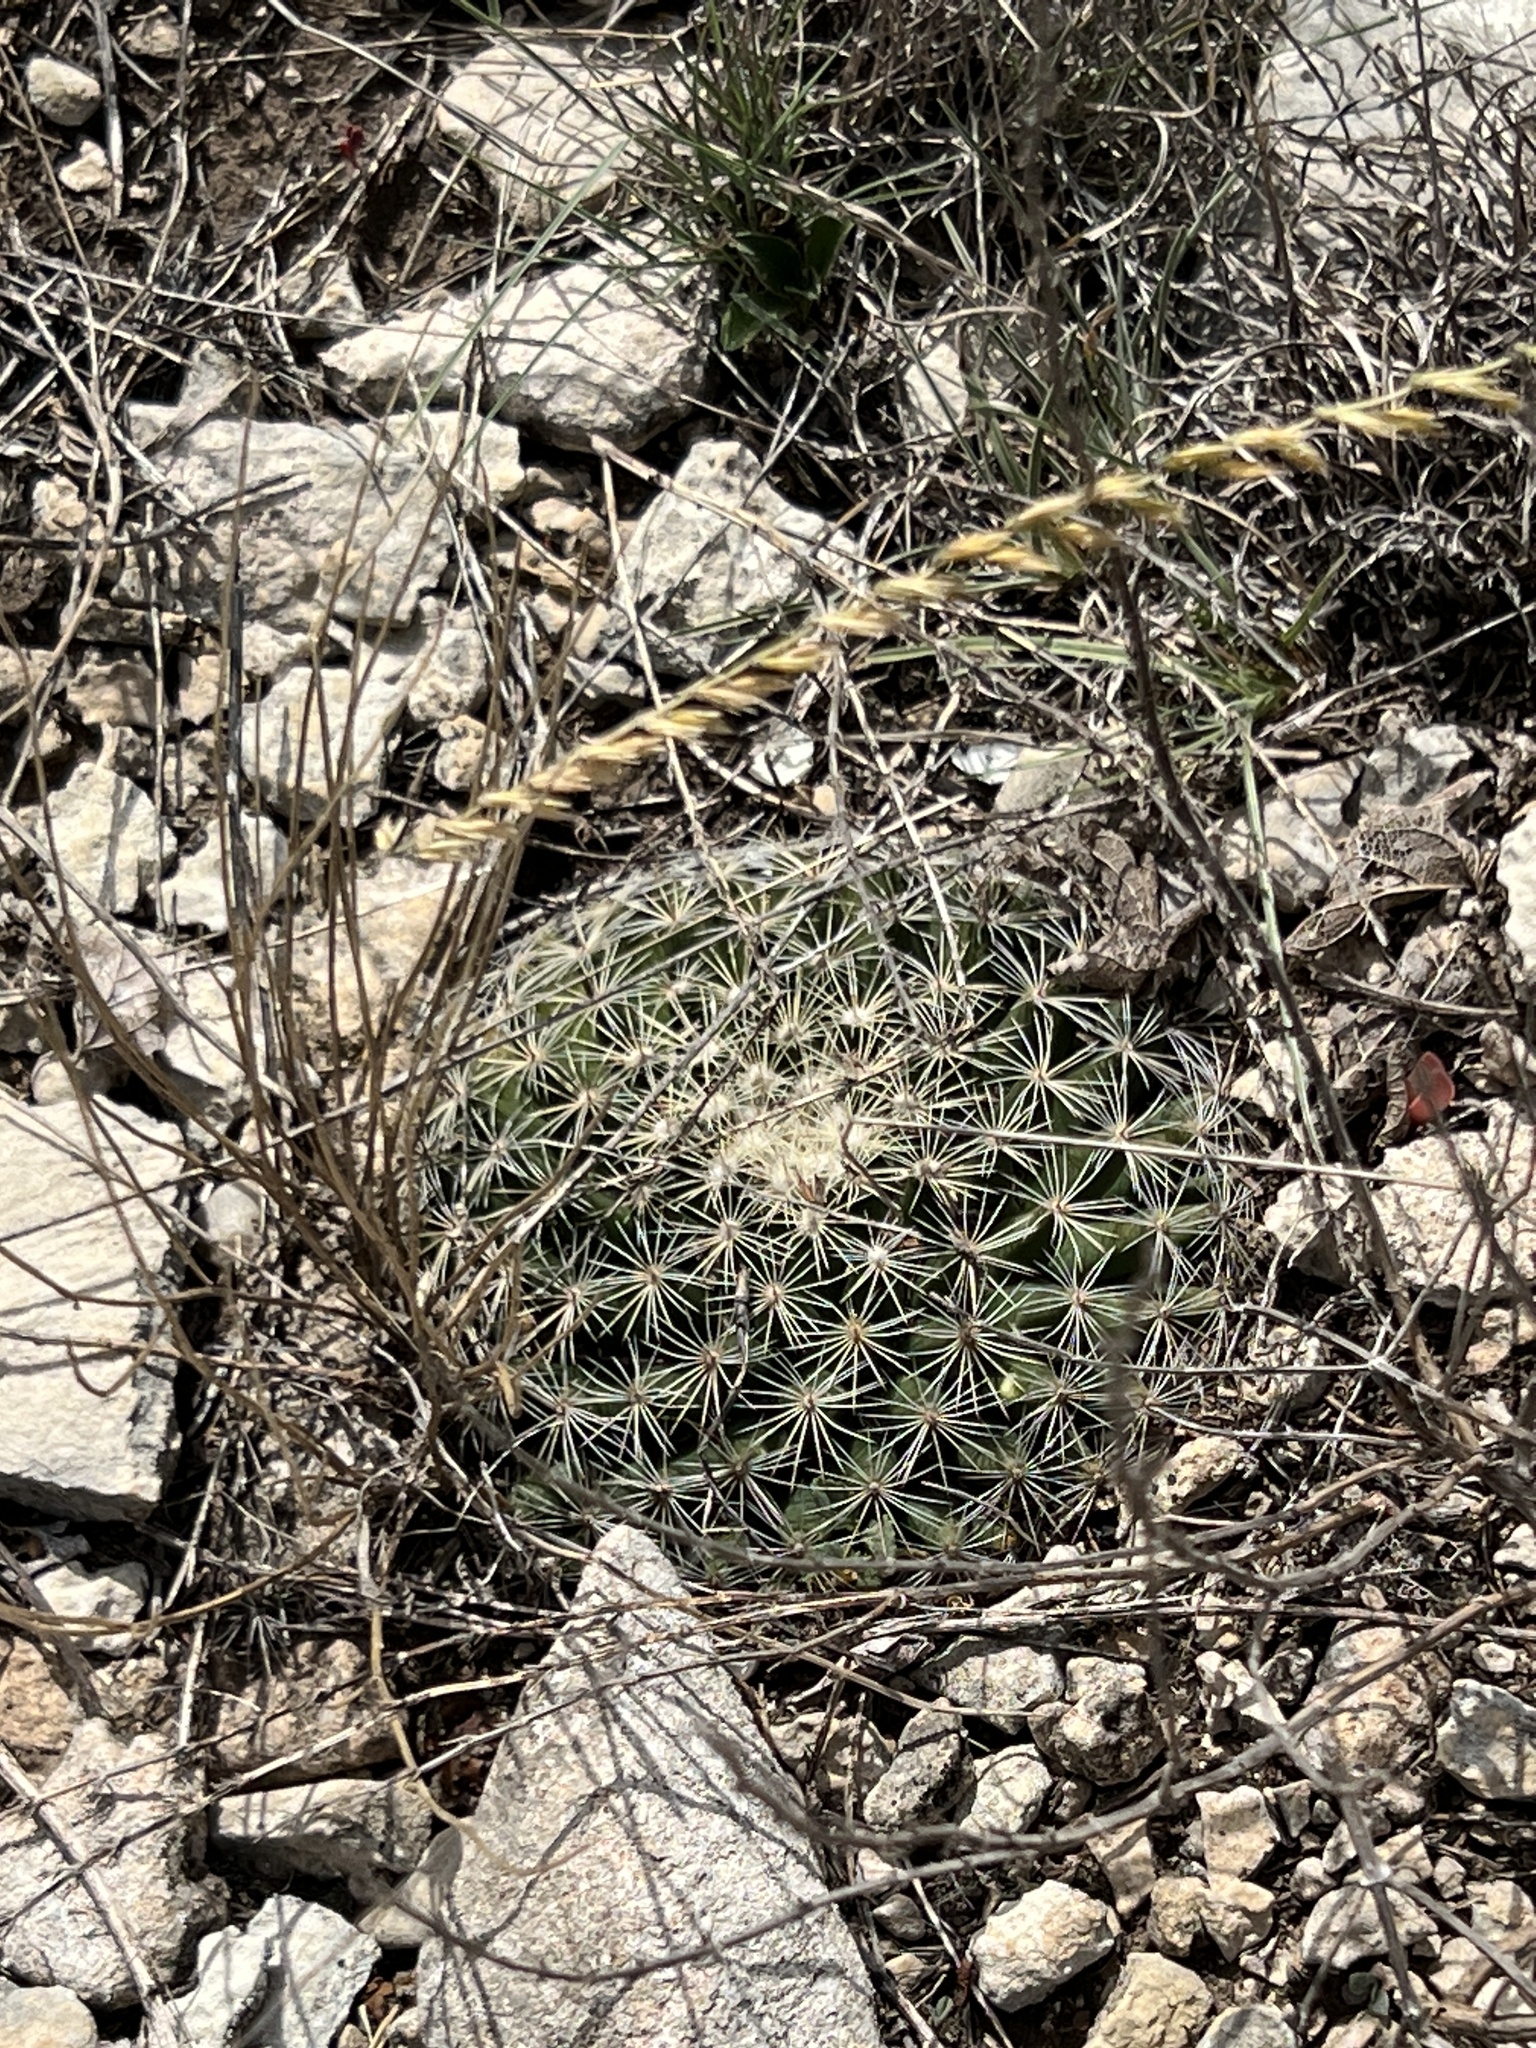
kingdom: Plantae
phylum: Tracheophyta
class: Magnoliopsida
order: Caryophyllales
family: Cactaceae
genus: Mammillaria
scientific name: Mammillaria heyderi
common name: Little nipple cactus
